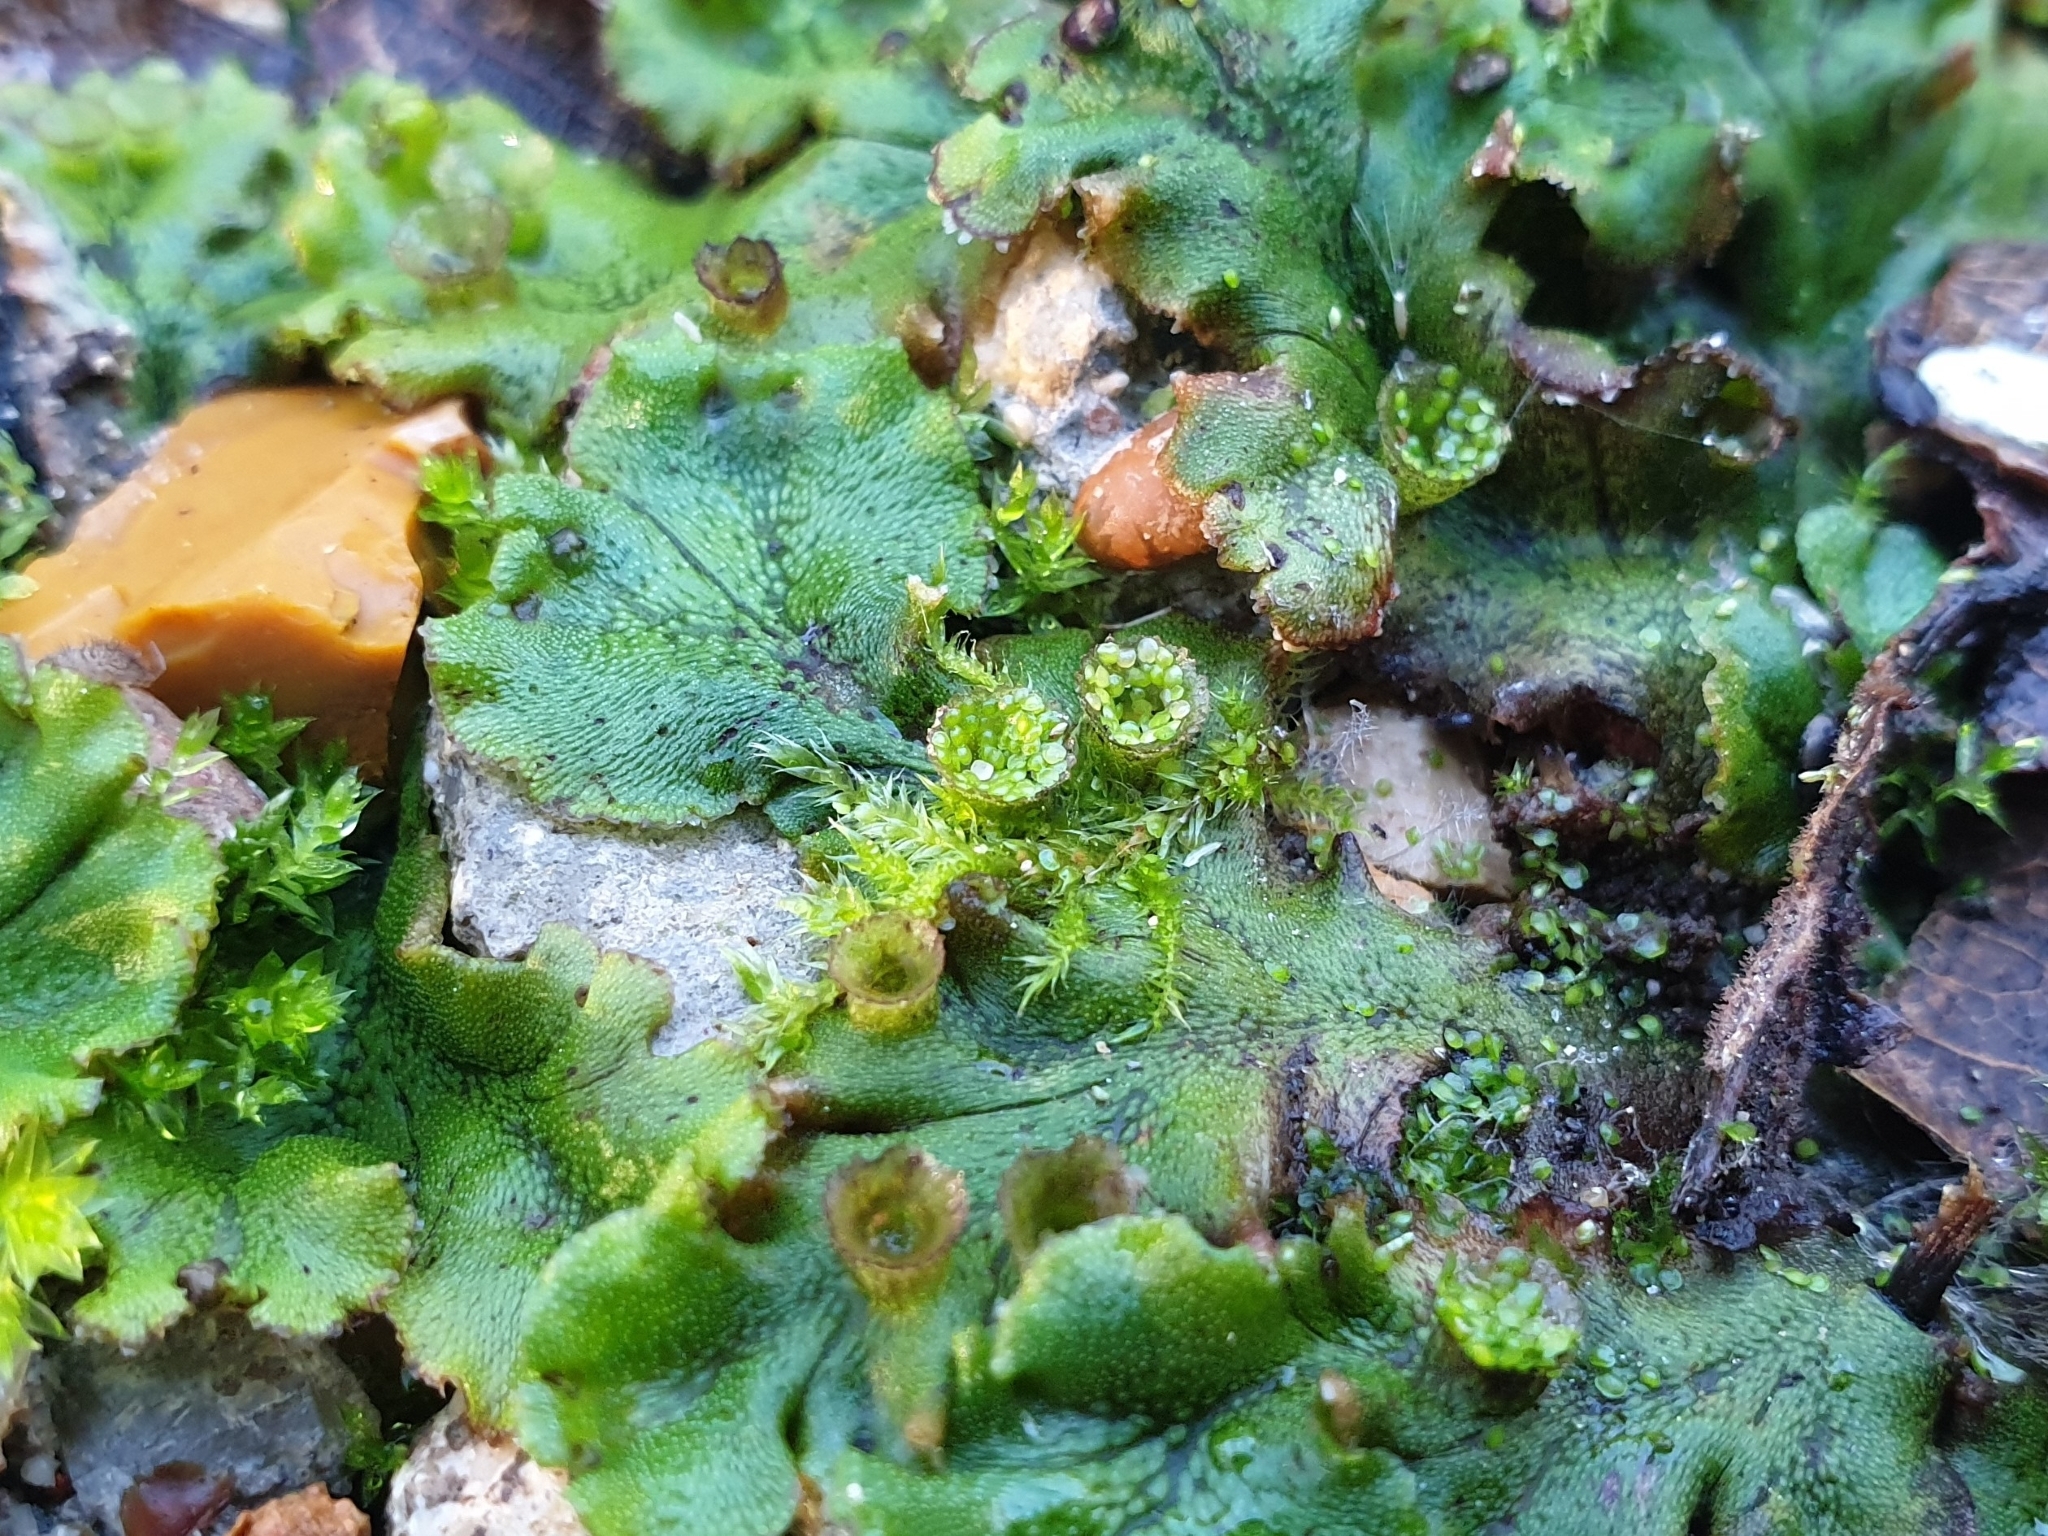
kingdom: Plantae
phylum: Marchantiophyta
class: Marchantiopsida
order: Marchantiales
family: Marchantiaceae
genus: Marchantia
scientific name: Marchantia polymorpha
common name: Common liverwort
